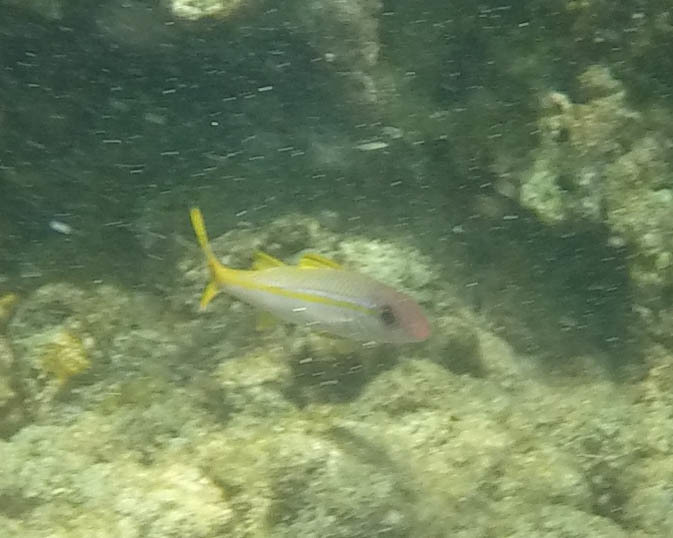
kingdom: Animalia
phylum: Chordata
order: Perciformes
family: Mullidae
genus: Mulloidichthys
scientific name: Mulloidichthys vanicolensis
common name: Yellowfin goatfish
